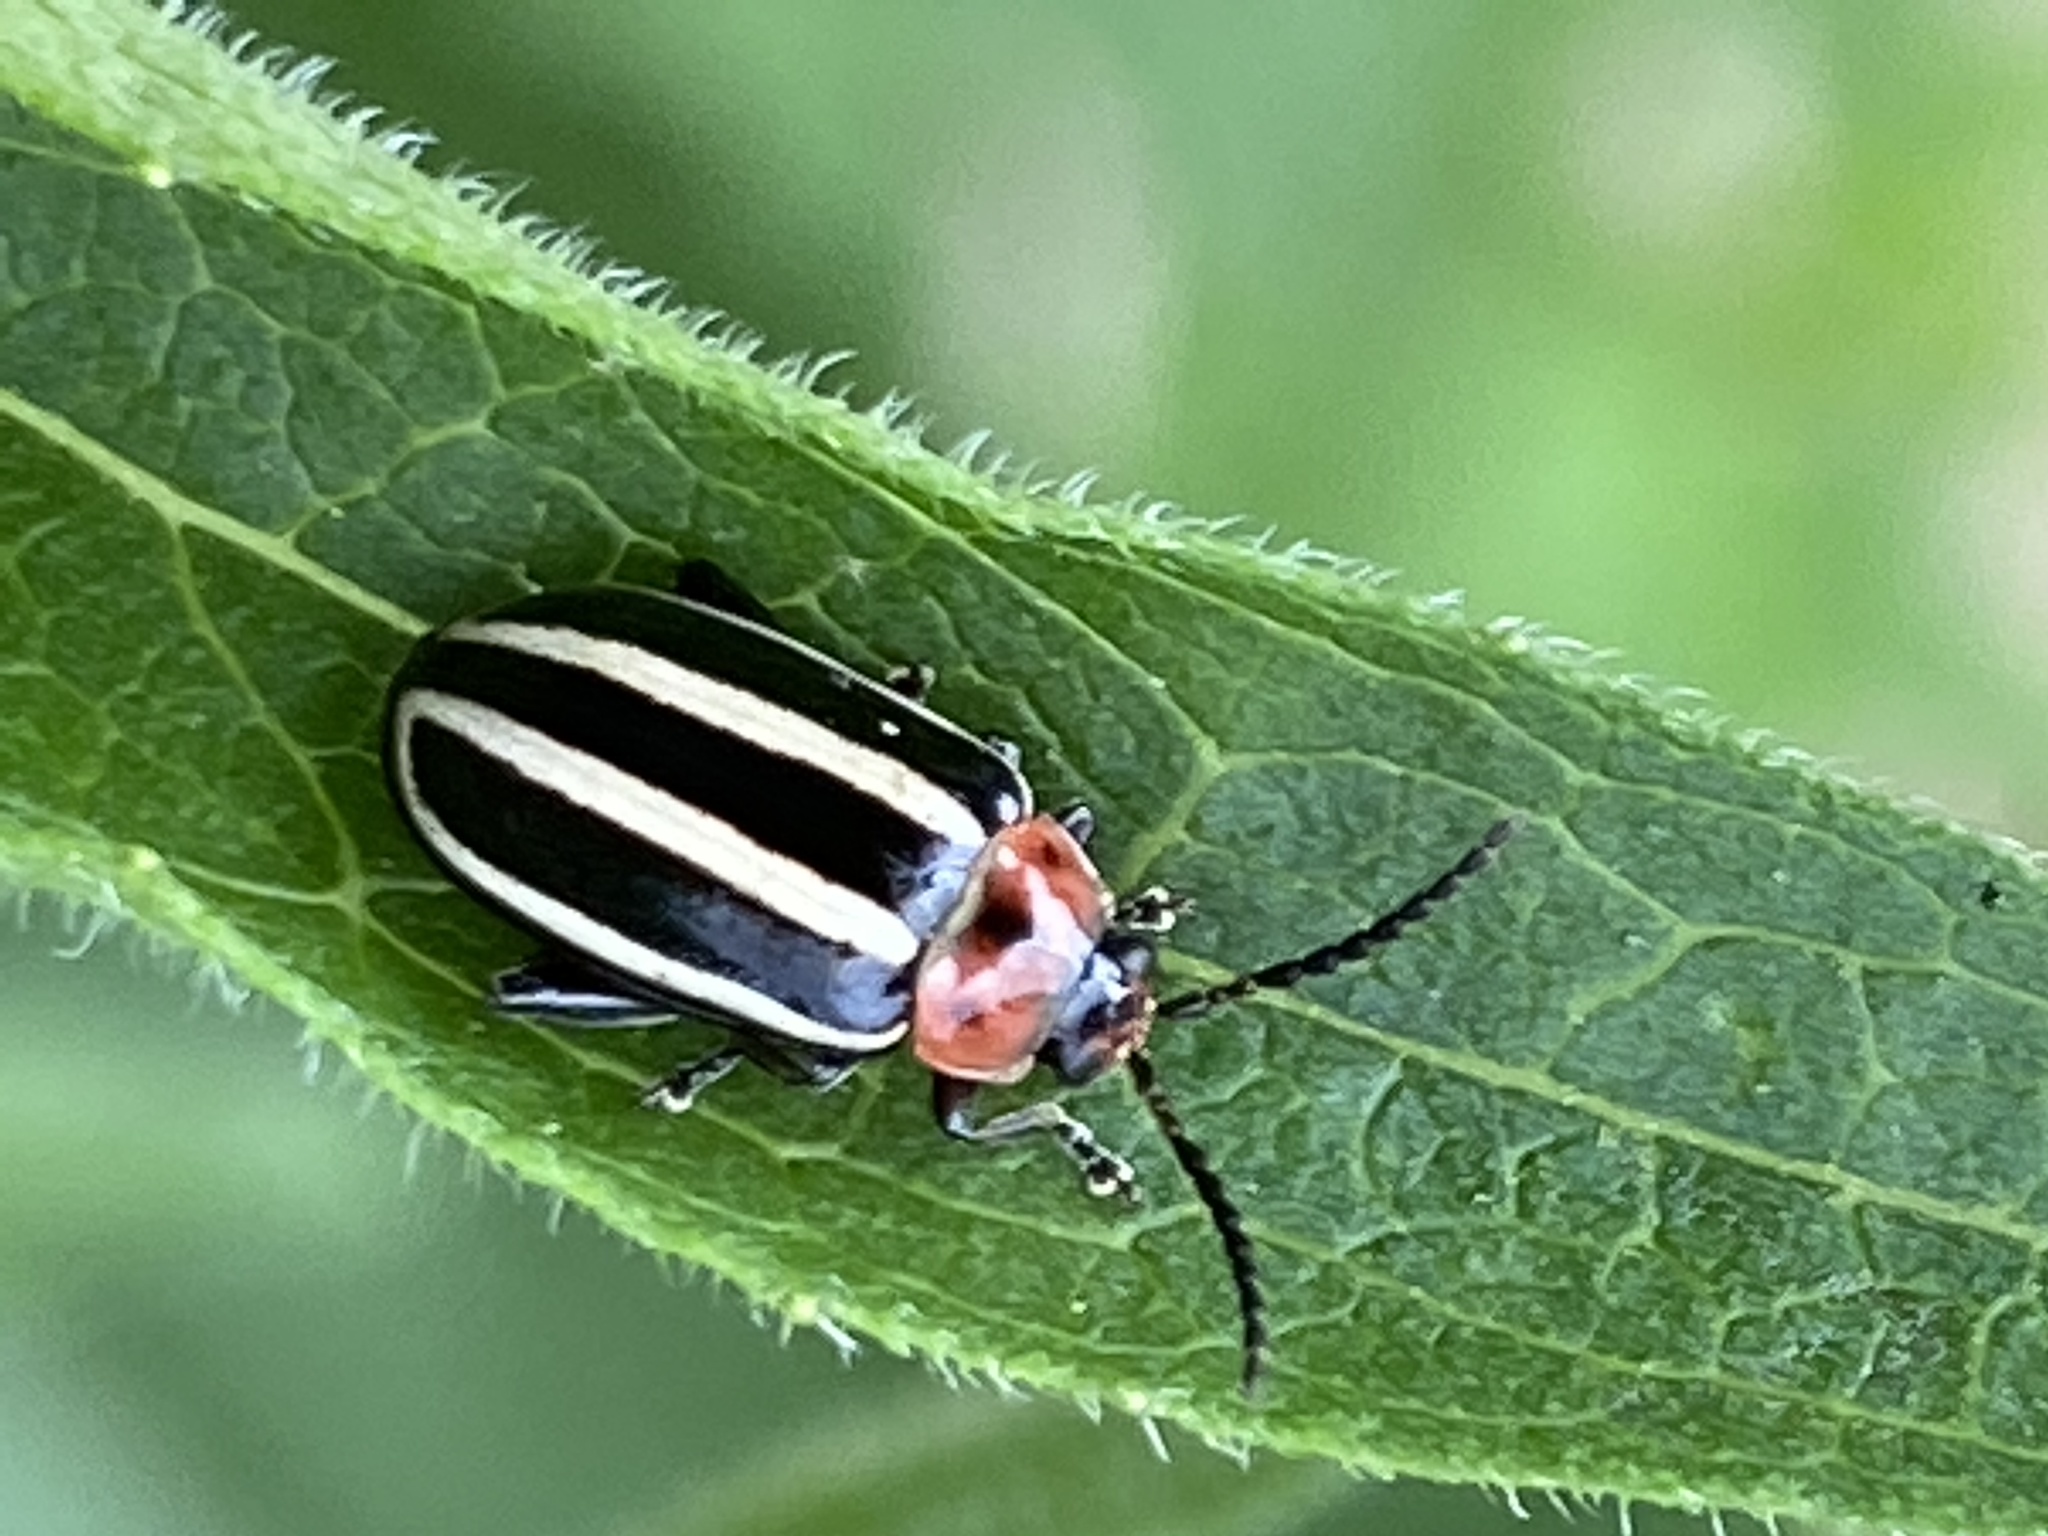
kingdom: Animalia
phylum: Arthropoda
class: Insecta
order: Coleoptera
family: Chrysomelidae
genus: Disonycha
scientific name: Disonycha glabrata
